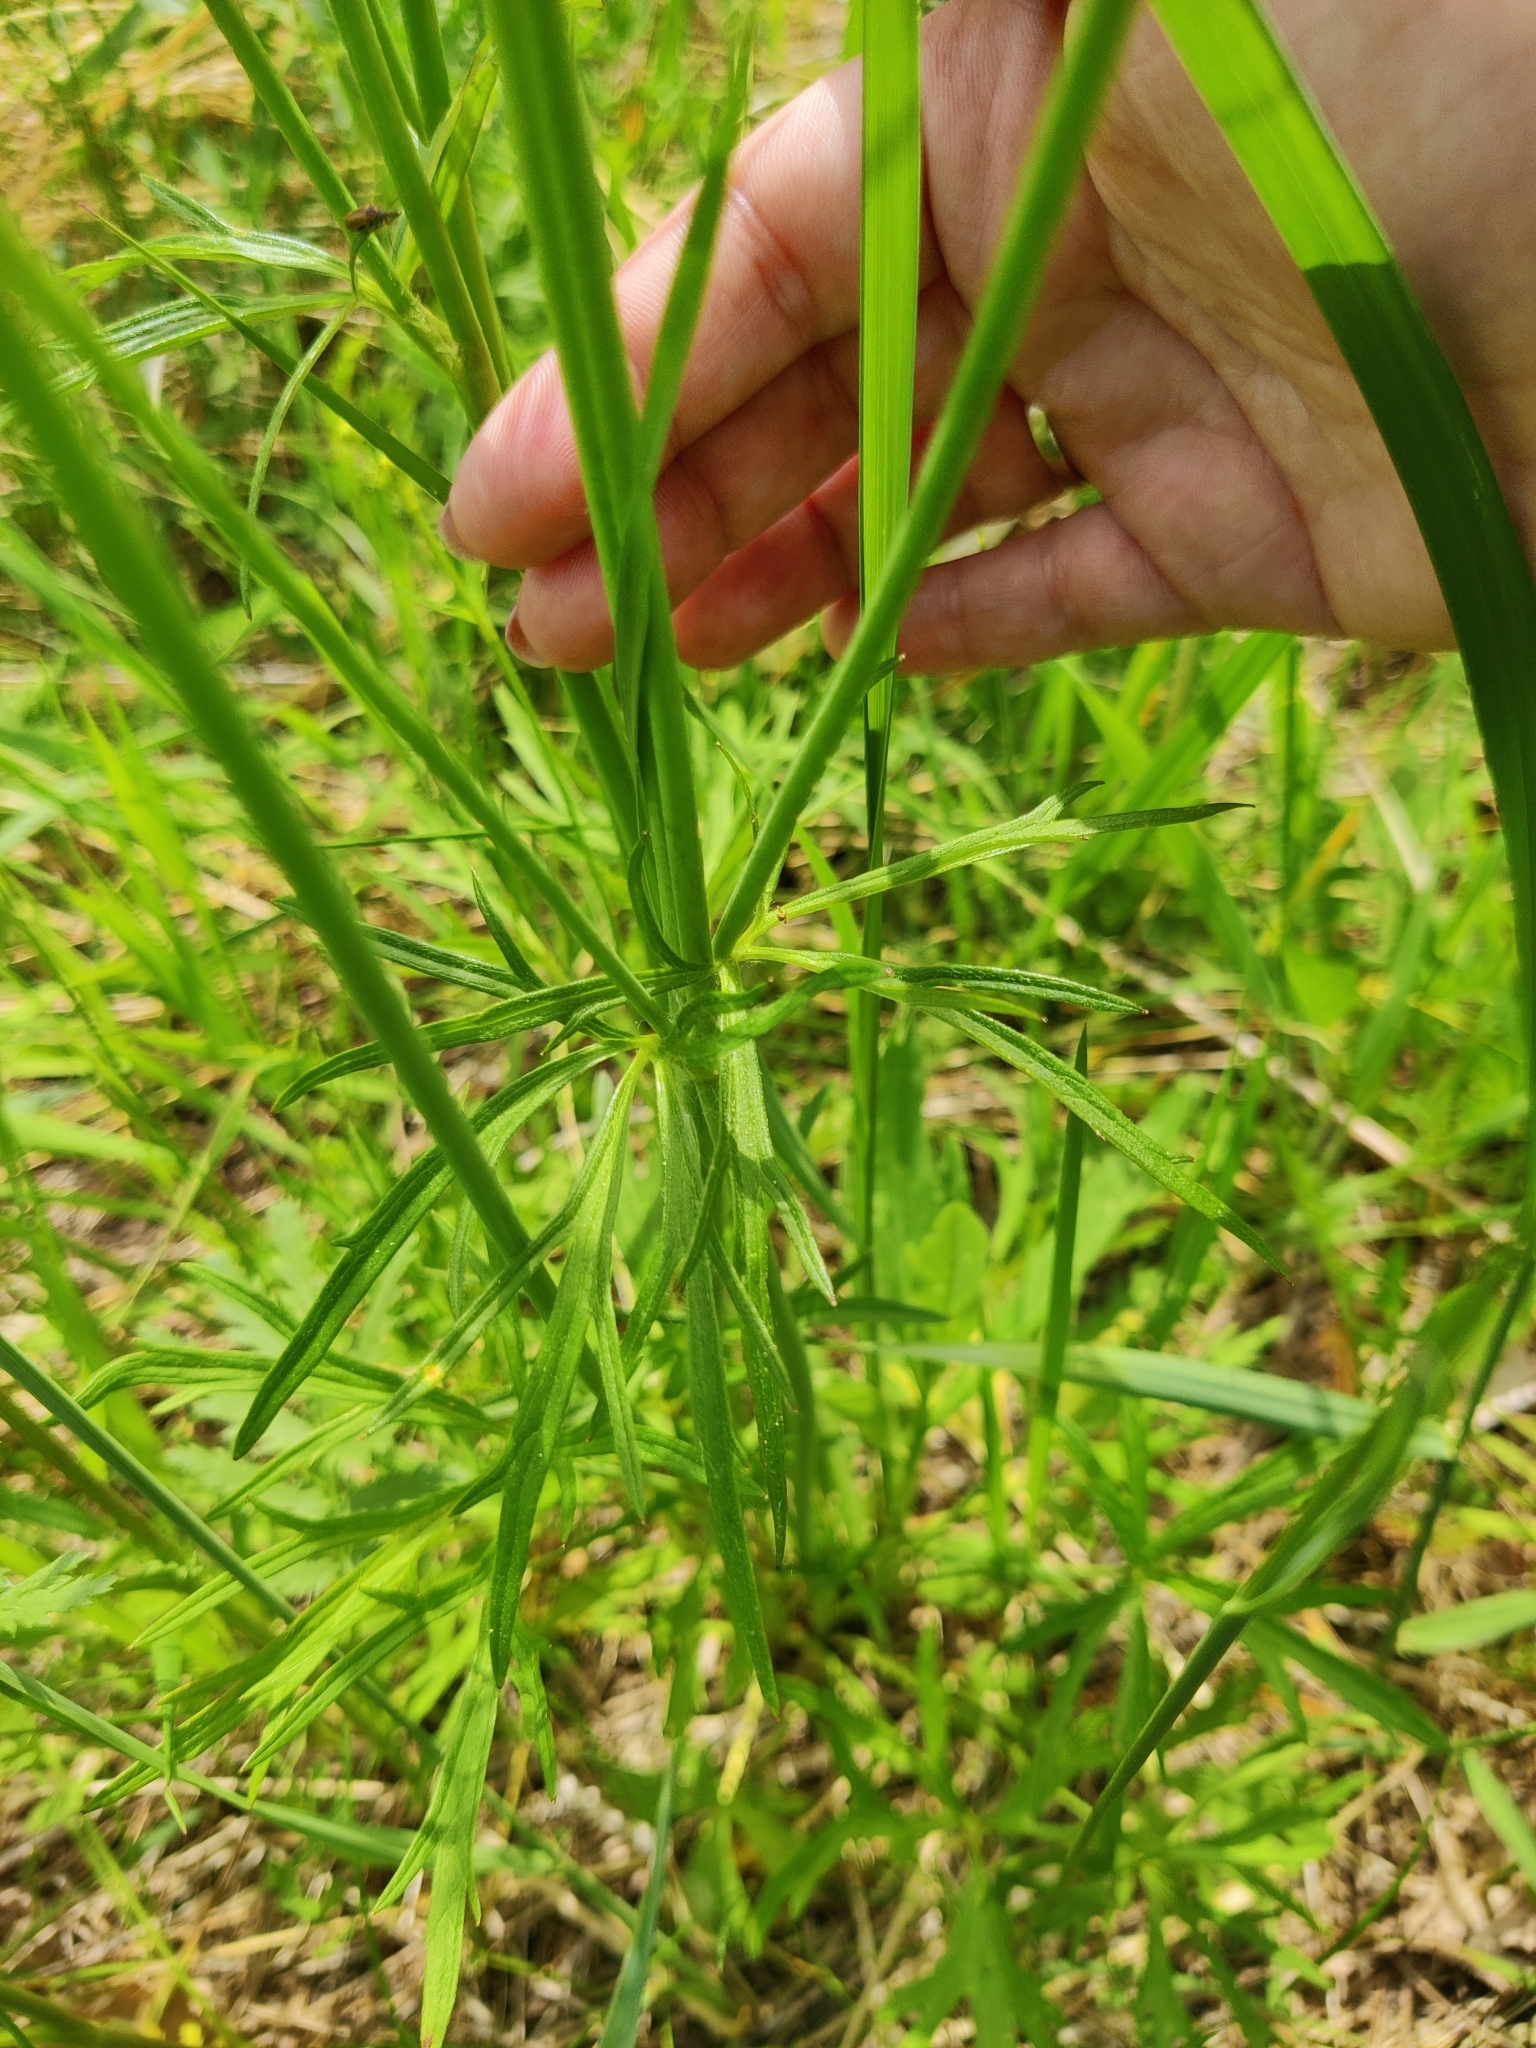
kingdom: Plantae
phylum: Tracheophyta
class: Magnoliopsida
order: Ranunculales
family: Ranunculaceae
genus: Ranunculus
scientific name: Ranunculus acris
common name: Meadow buttercup
